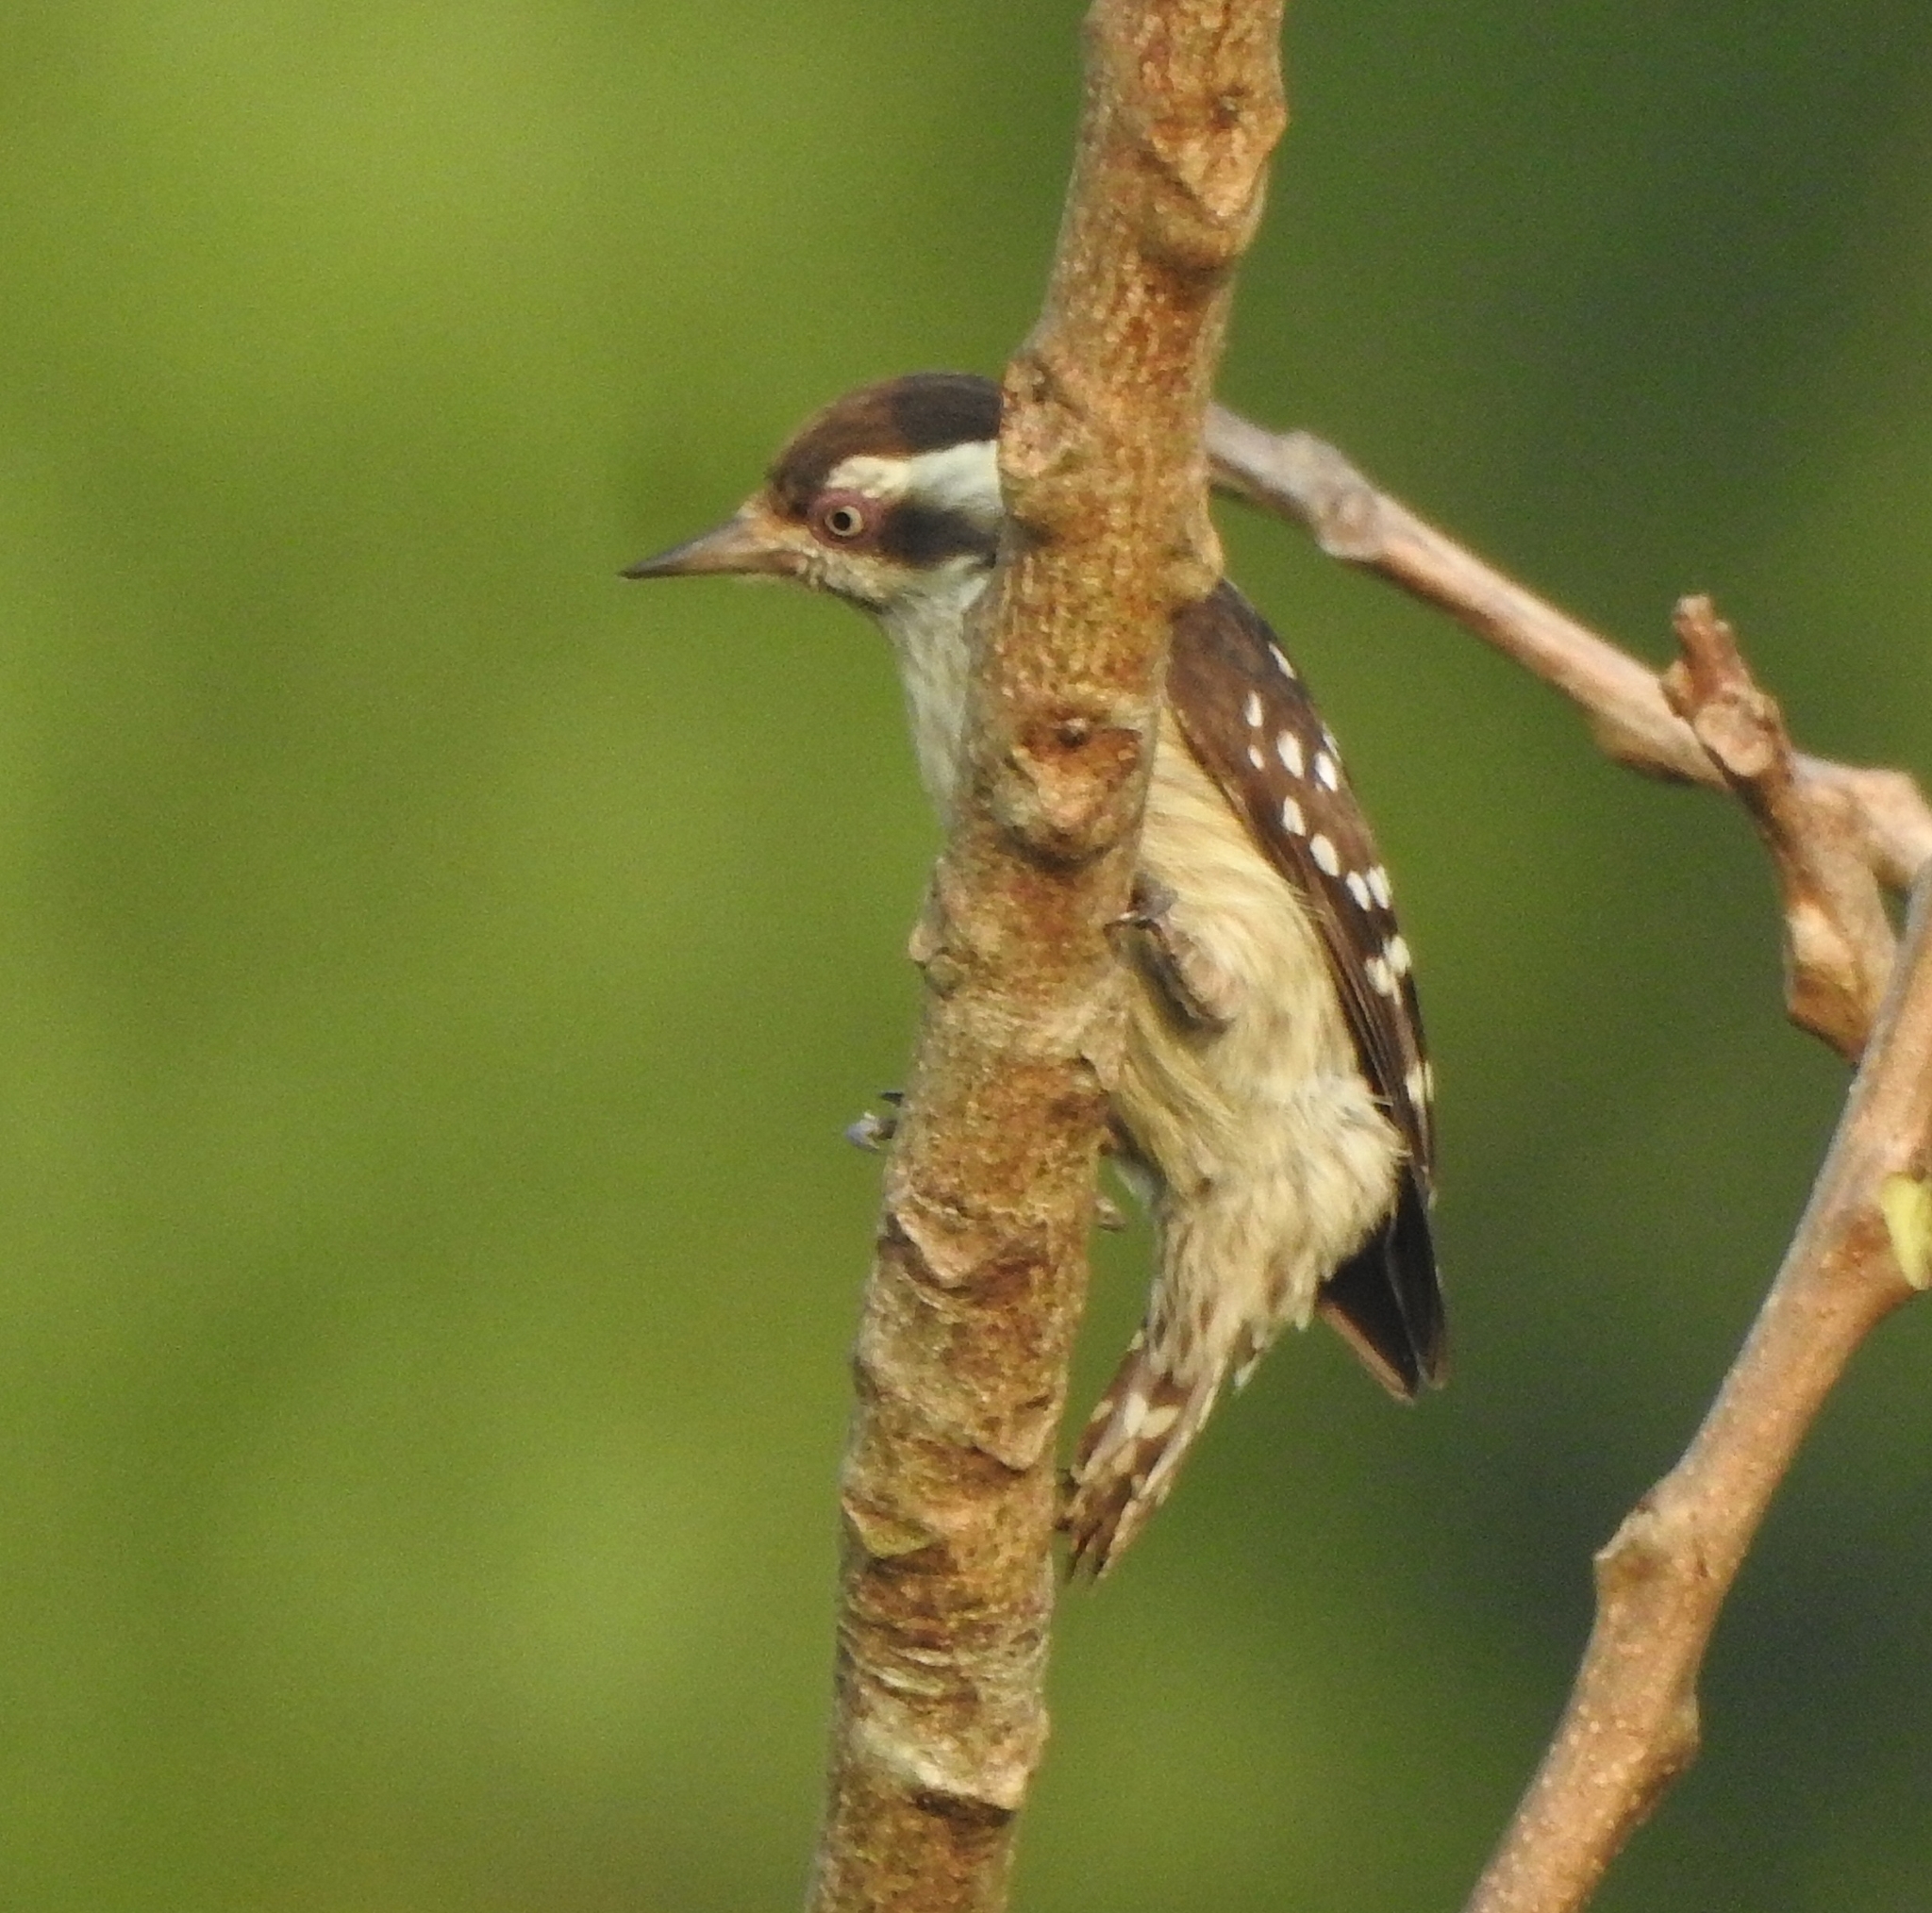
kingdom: Animalia
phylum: Chordata
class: Aves
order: Piciformes
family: Picidae
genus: Yungipicus
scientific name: Yungipicus nanus
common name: Brown-capped pygmy woodpecker
